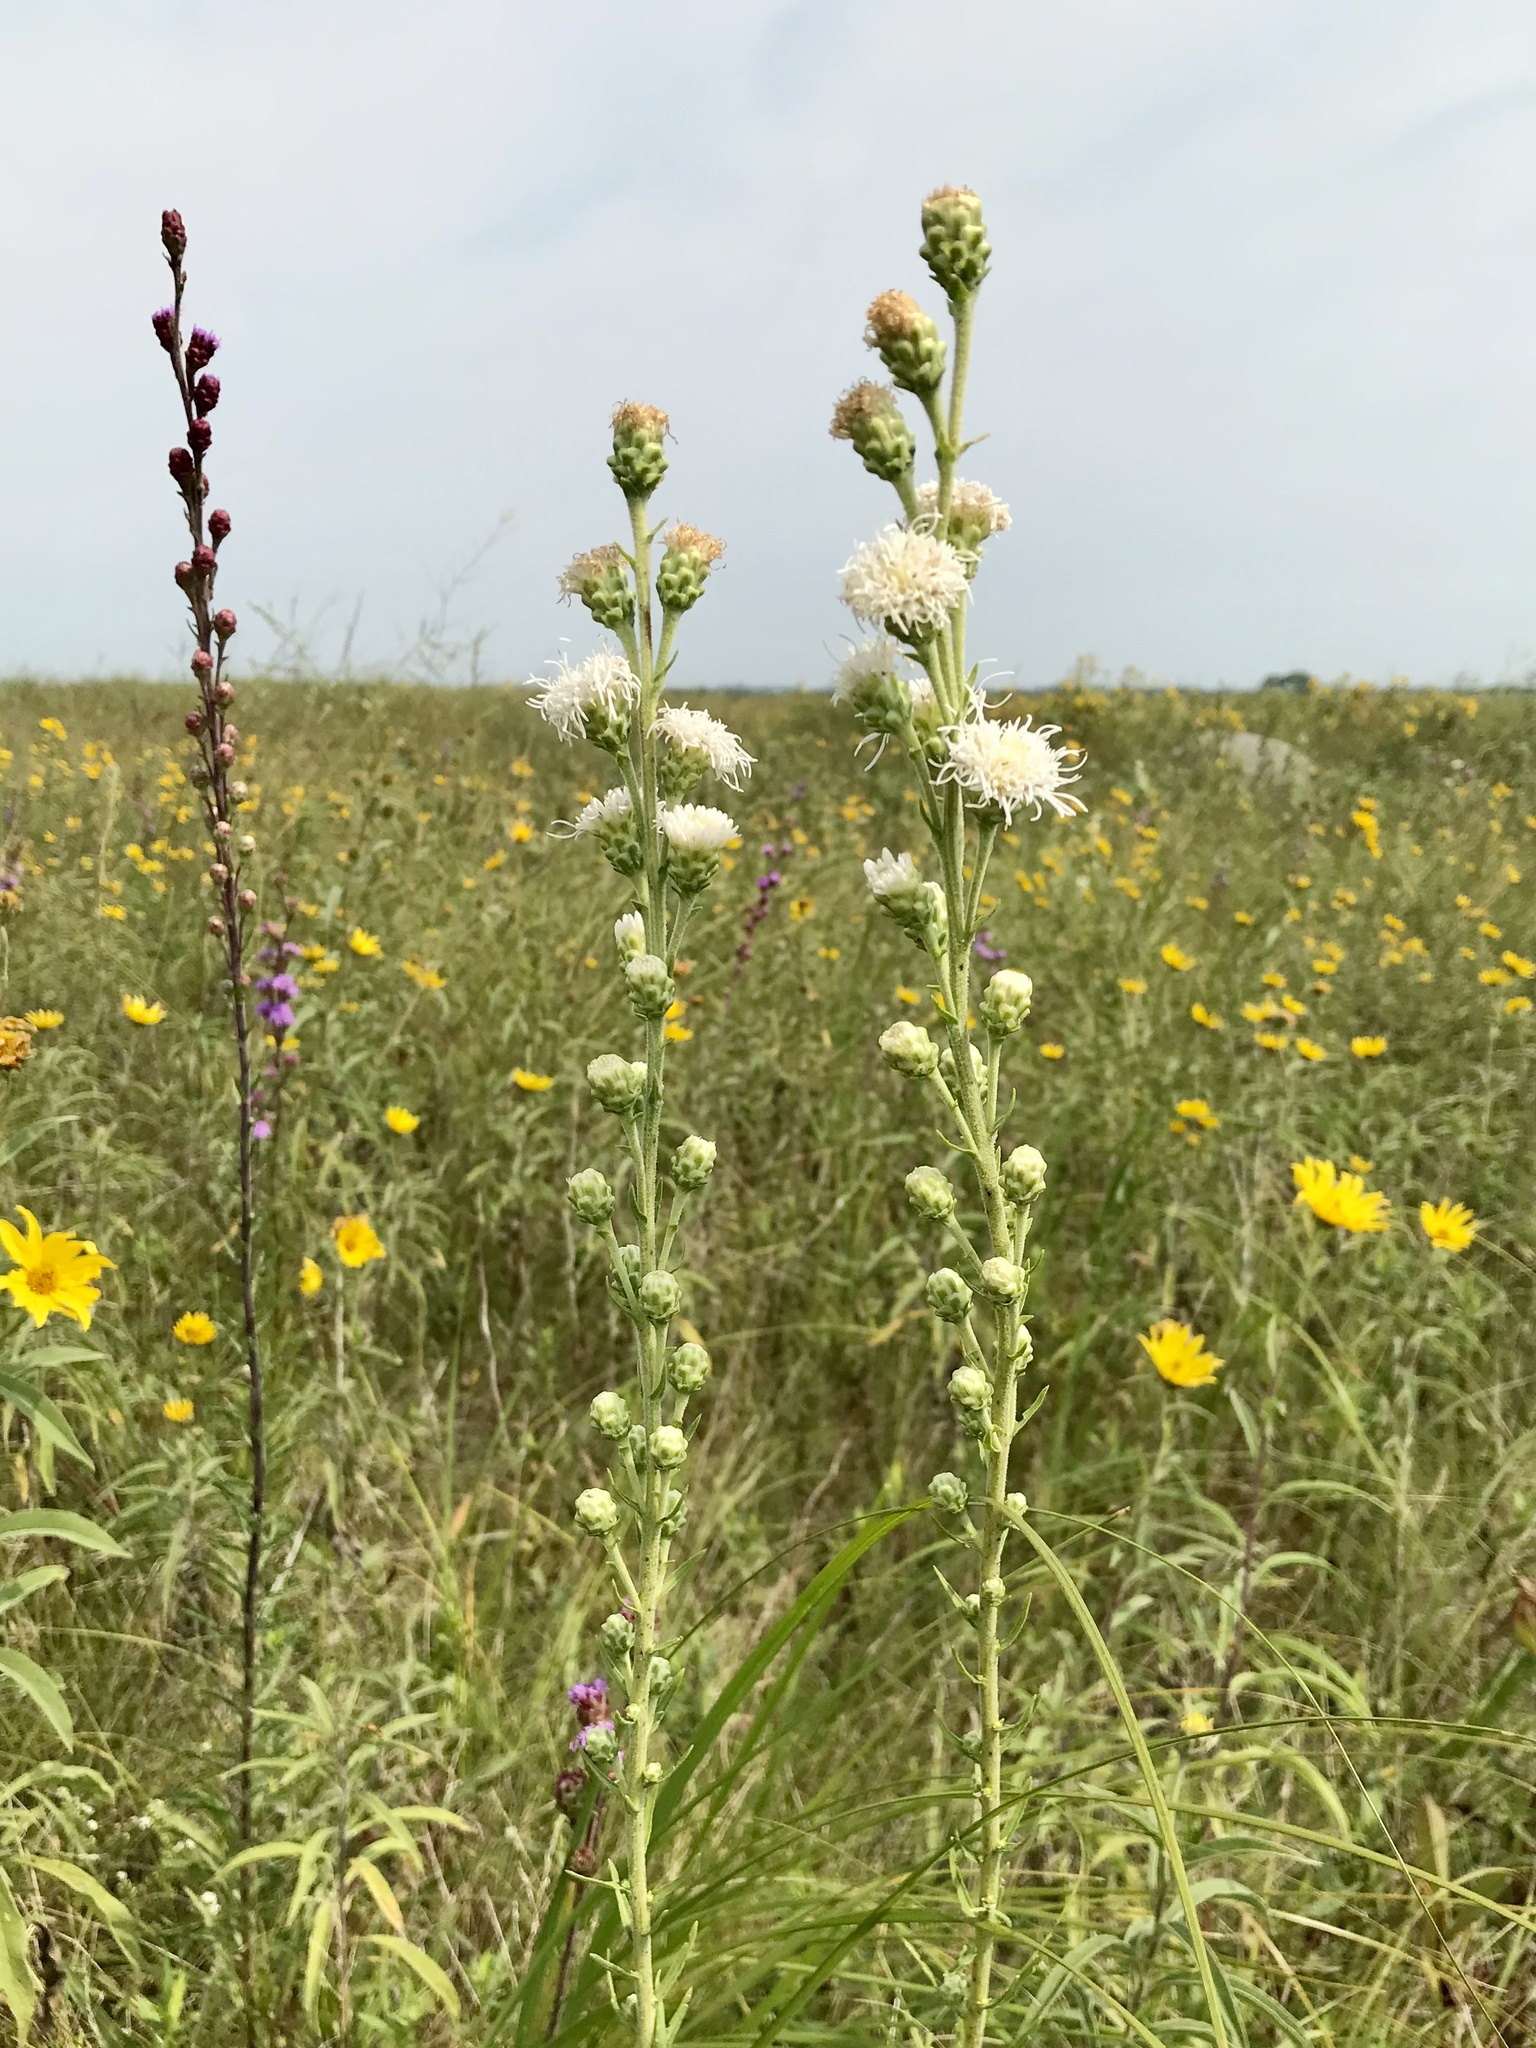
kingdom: Plantae
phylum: Tracheophyta
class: Magnoliopsida
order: Asterales
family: Asteraceae
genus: Liatris
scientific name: Liatris ligulistylis
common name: Northern plains gayfeather
